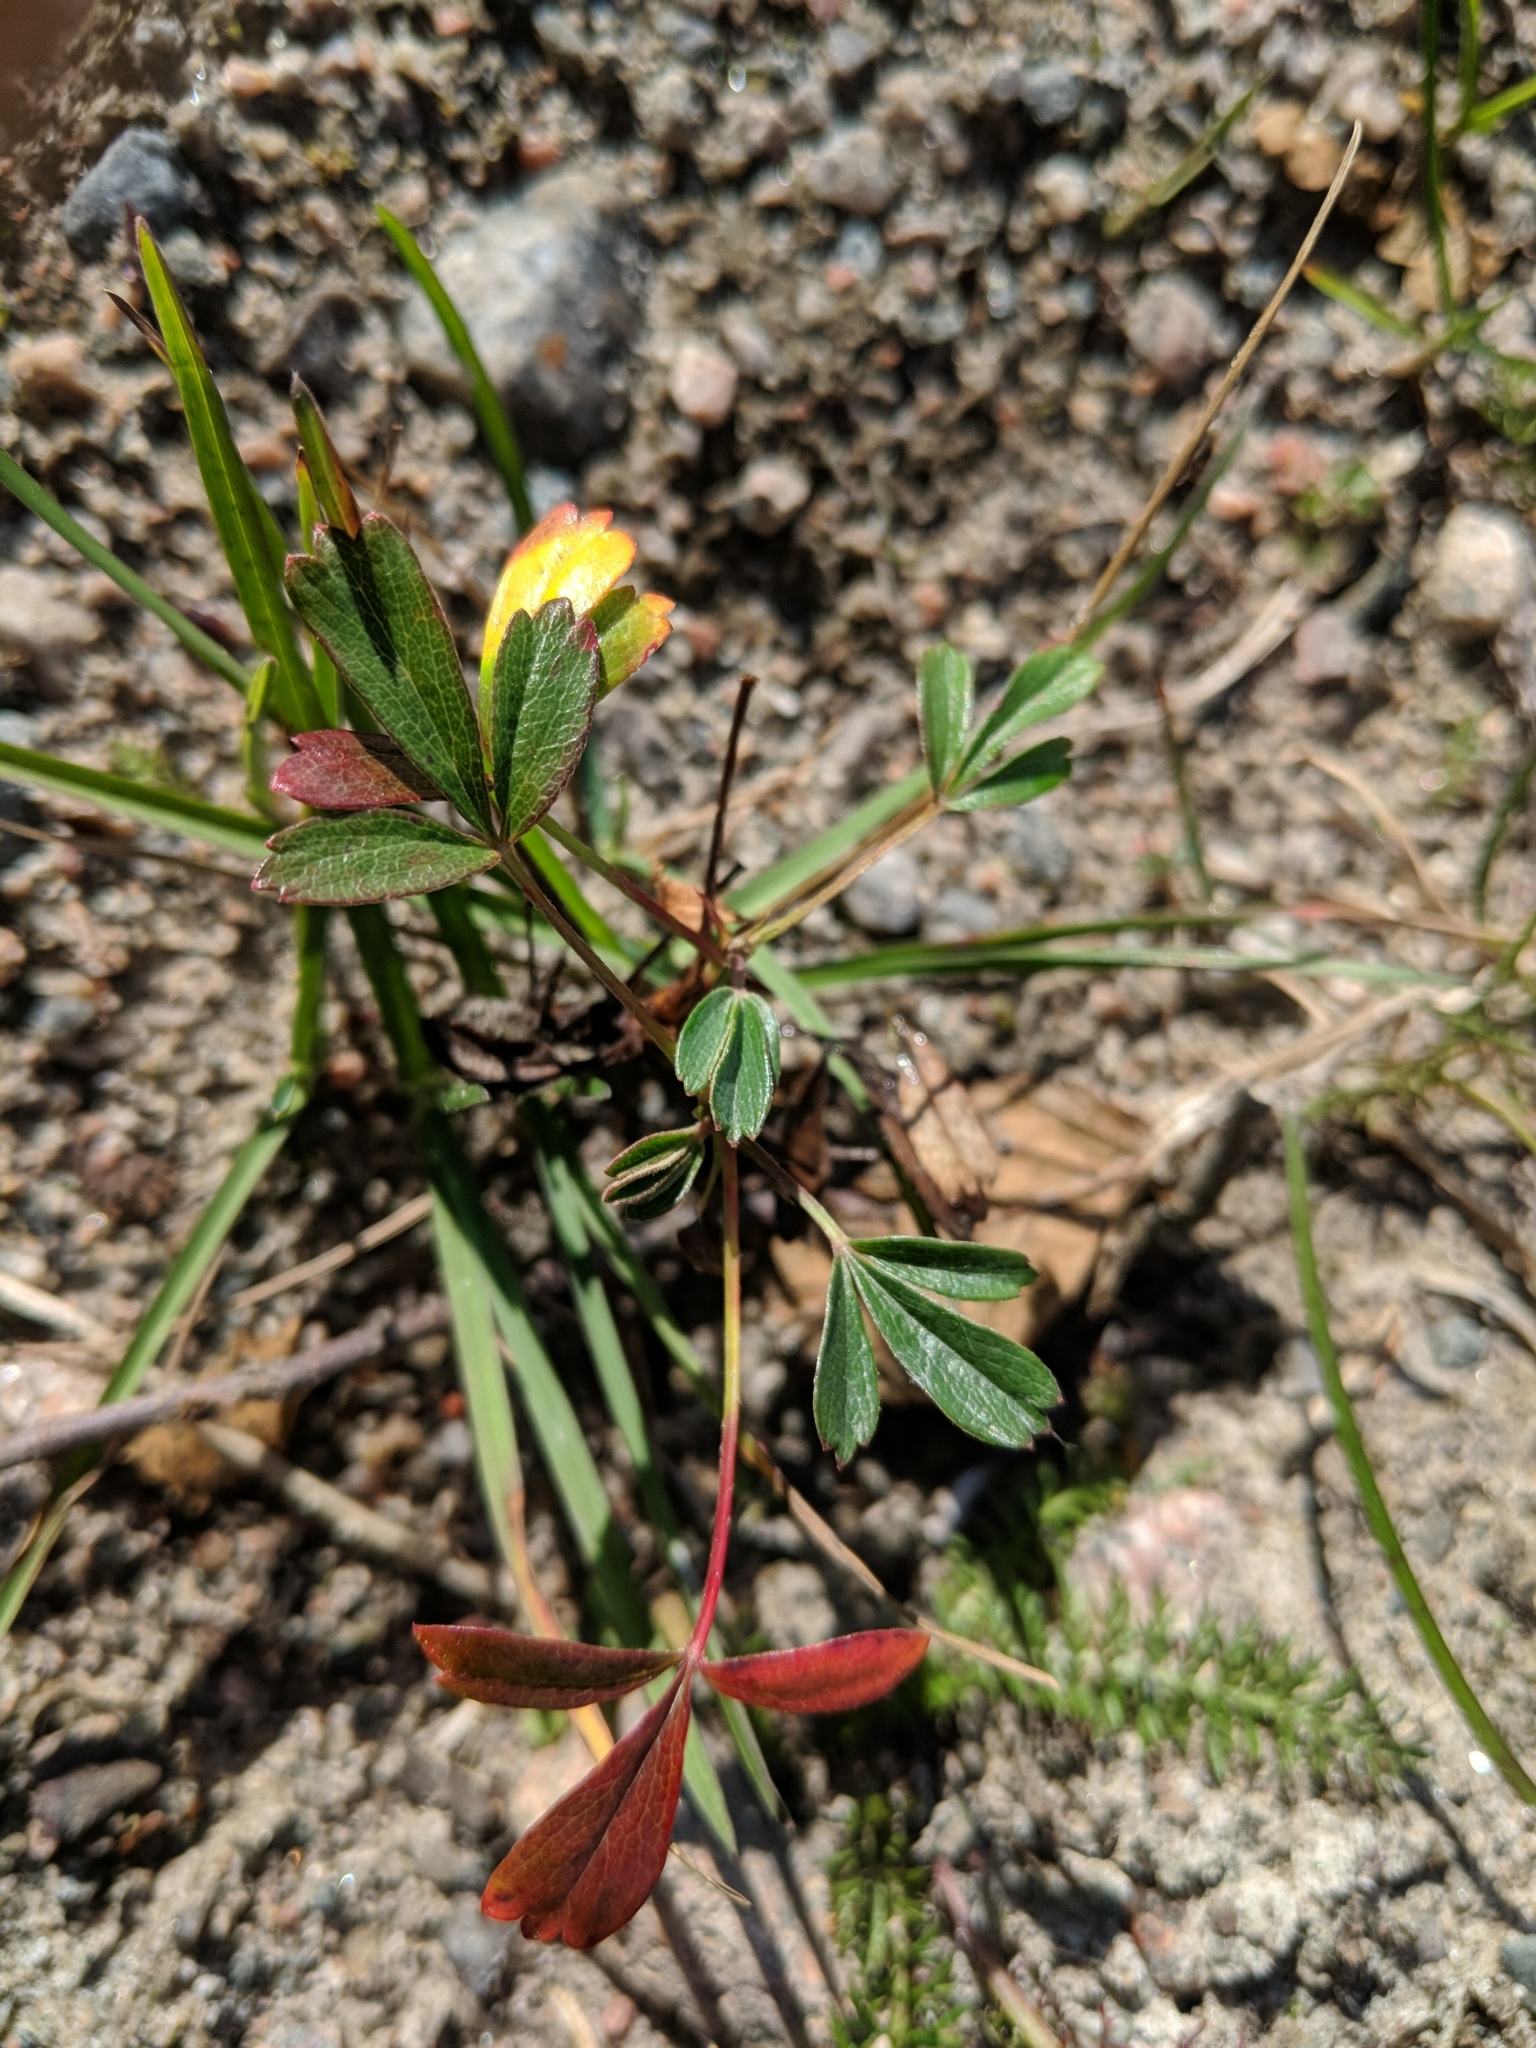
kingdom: Plantae
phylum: Tracheophyta
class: Magnoliopsida
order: Rosales
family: Rosaceae
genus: Sibbaldia
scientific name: Sibbaldia tridentata
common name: Three-toothed cinquefoil
